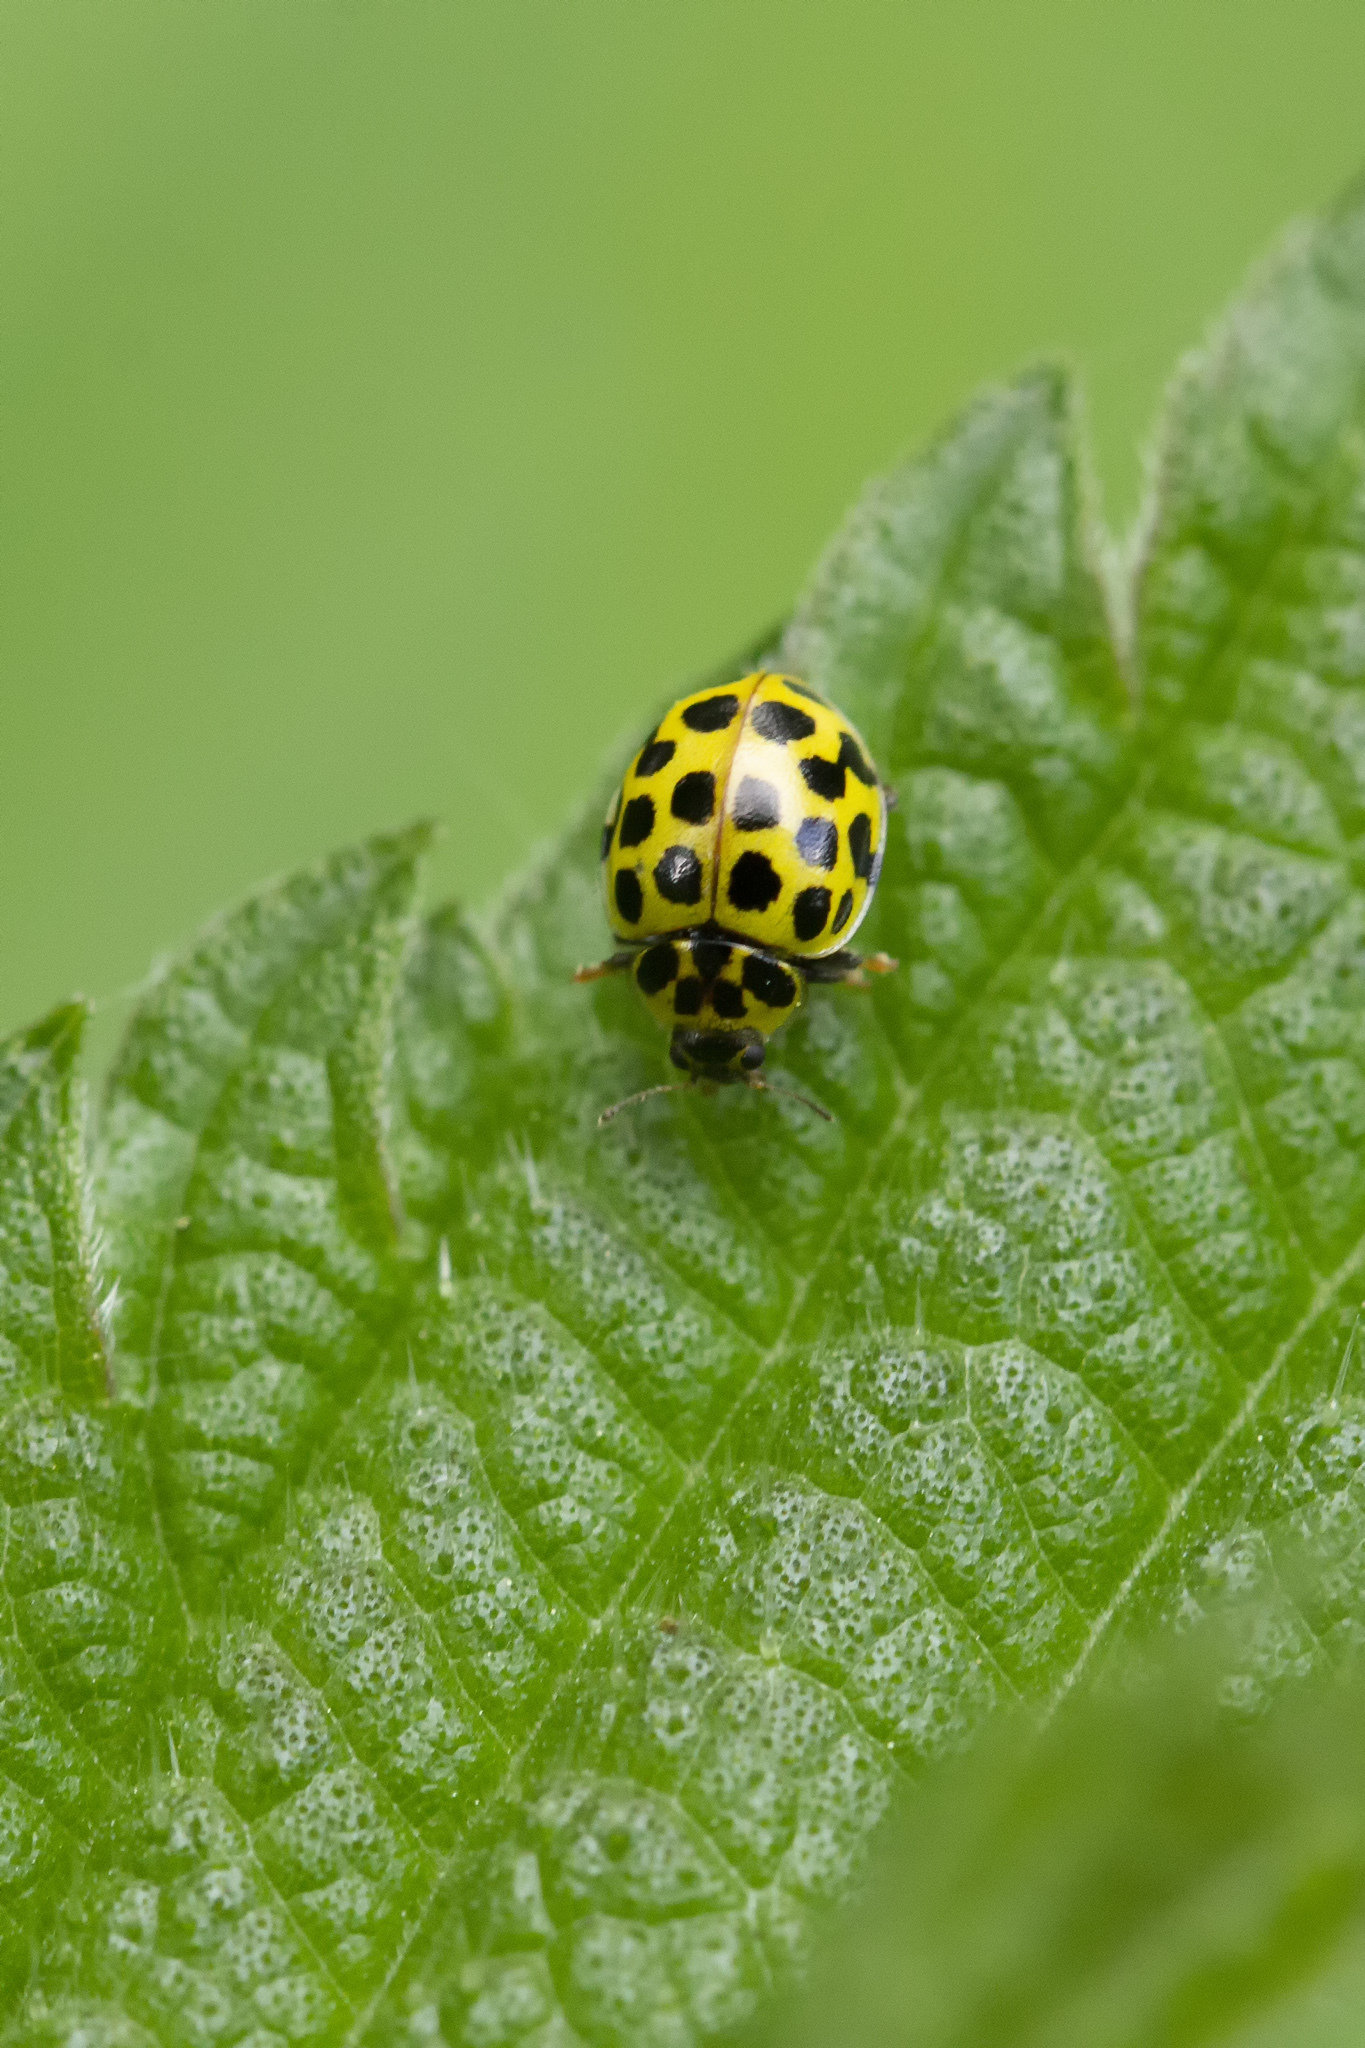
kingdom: Animalia
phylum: Arthropoda
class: Insecta
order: Coleoptera
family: Coccinellidae
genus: Psyllobora
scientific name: Psyllobora vigintiduopunctata
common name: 22-spot ladybird
